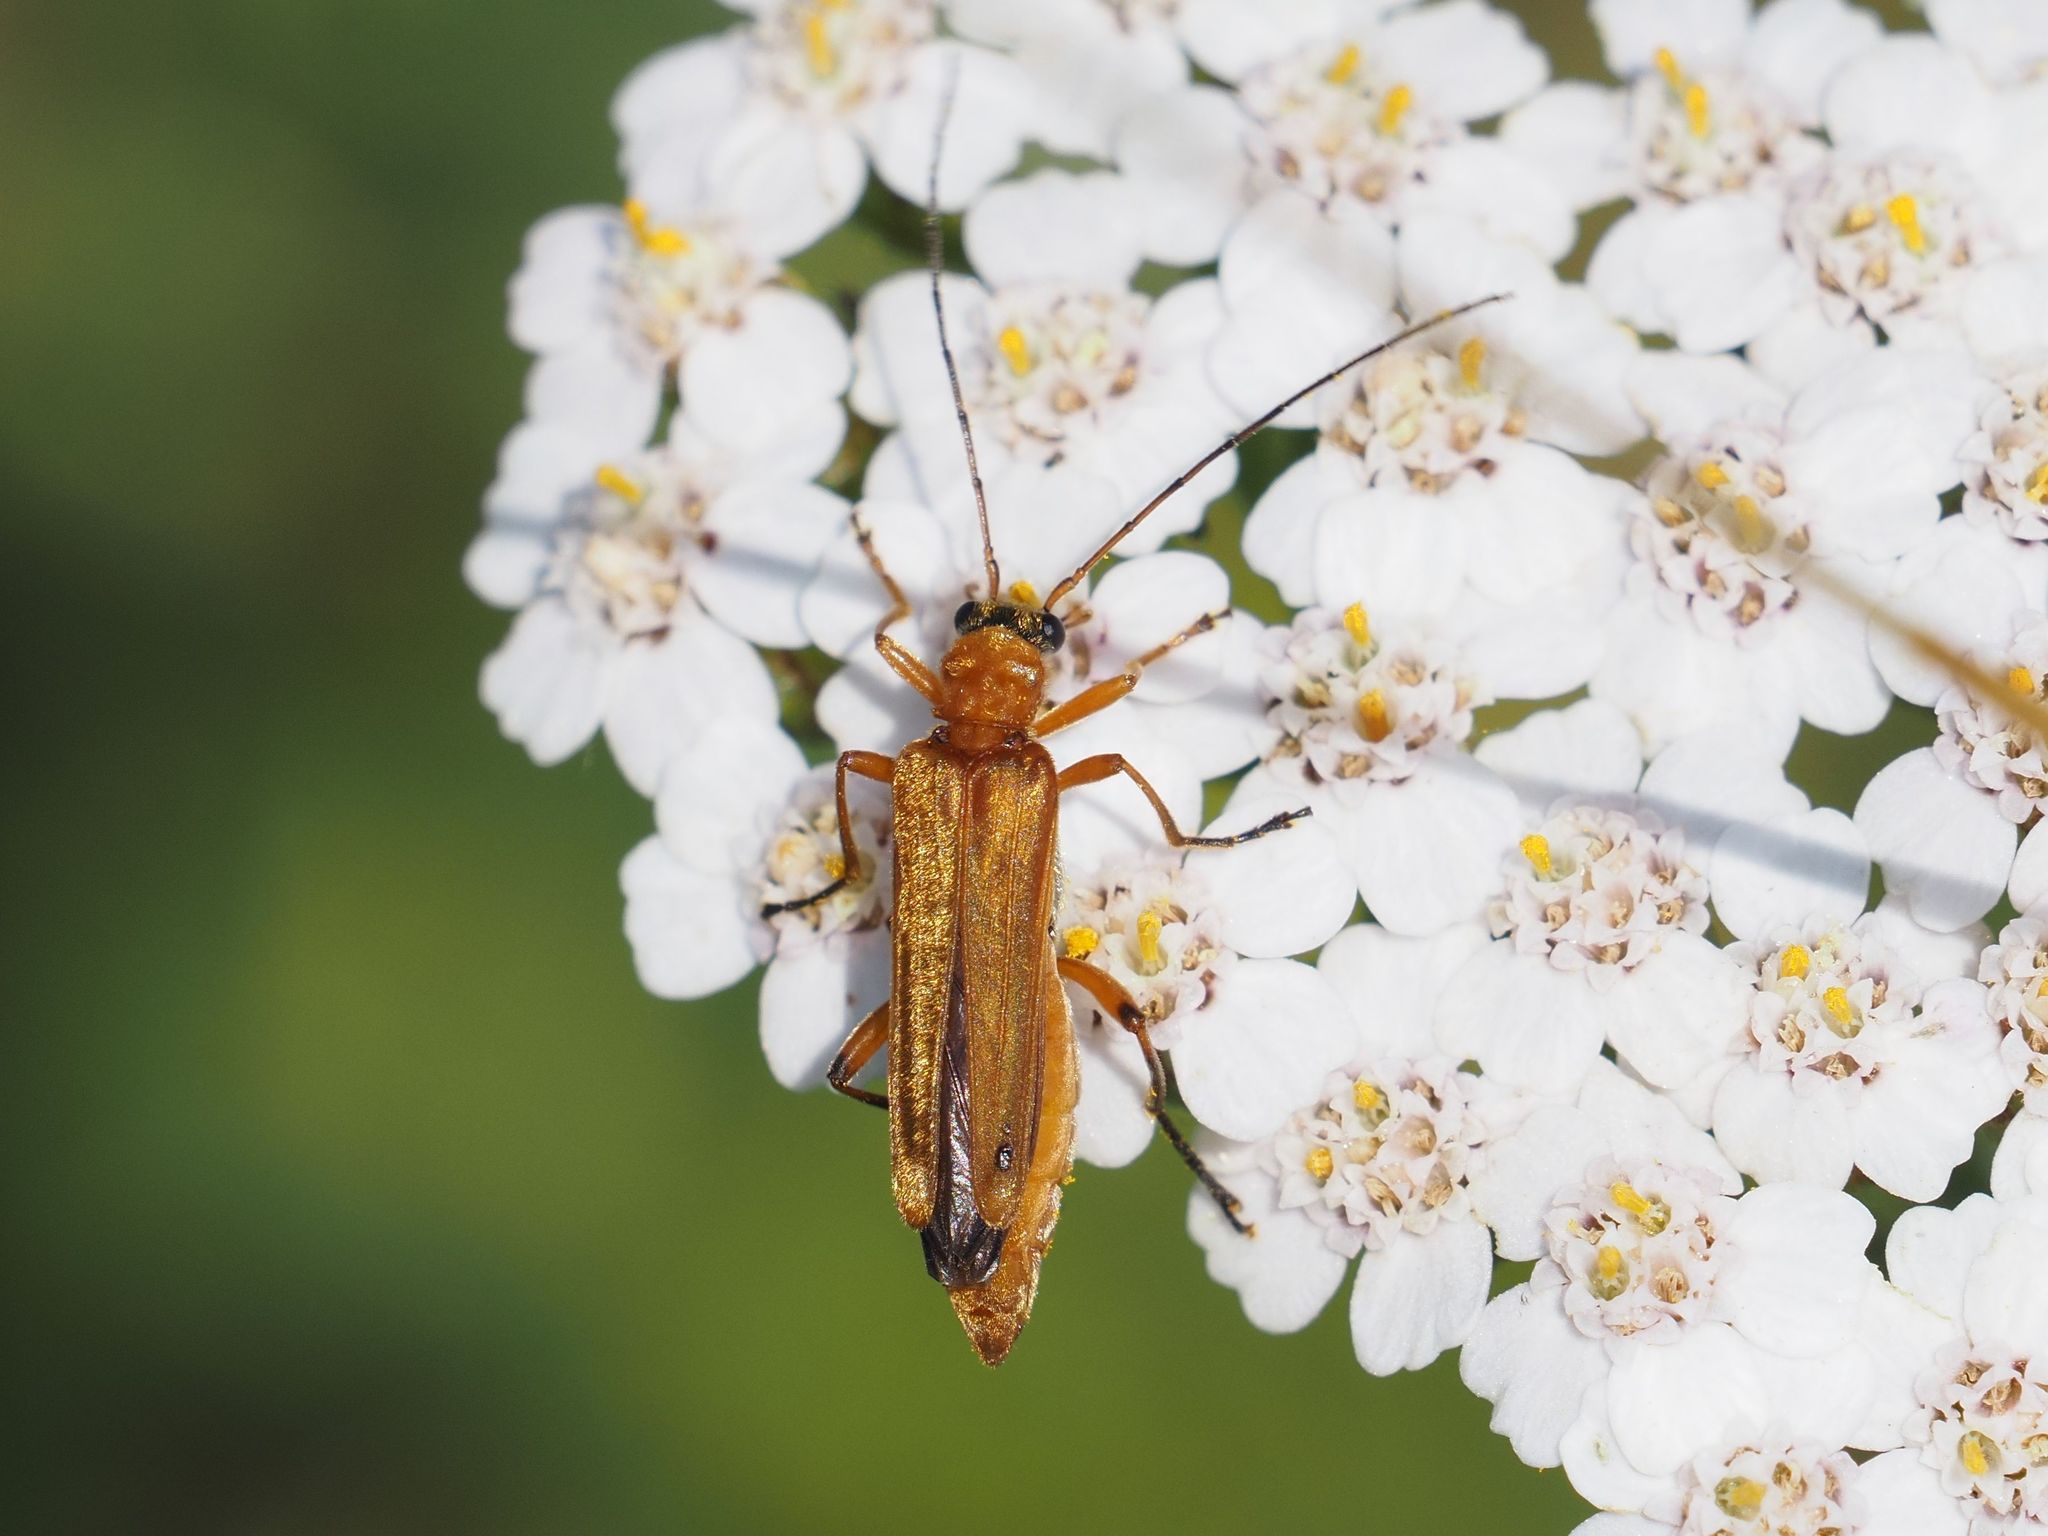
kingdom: Animalia
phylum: Arthropoda
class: Insecta
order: Coleoptera
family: Oedemeridae
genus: Oedemera
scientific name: Oedemera podagrariae
